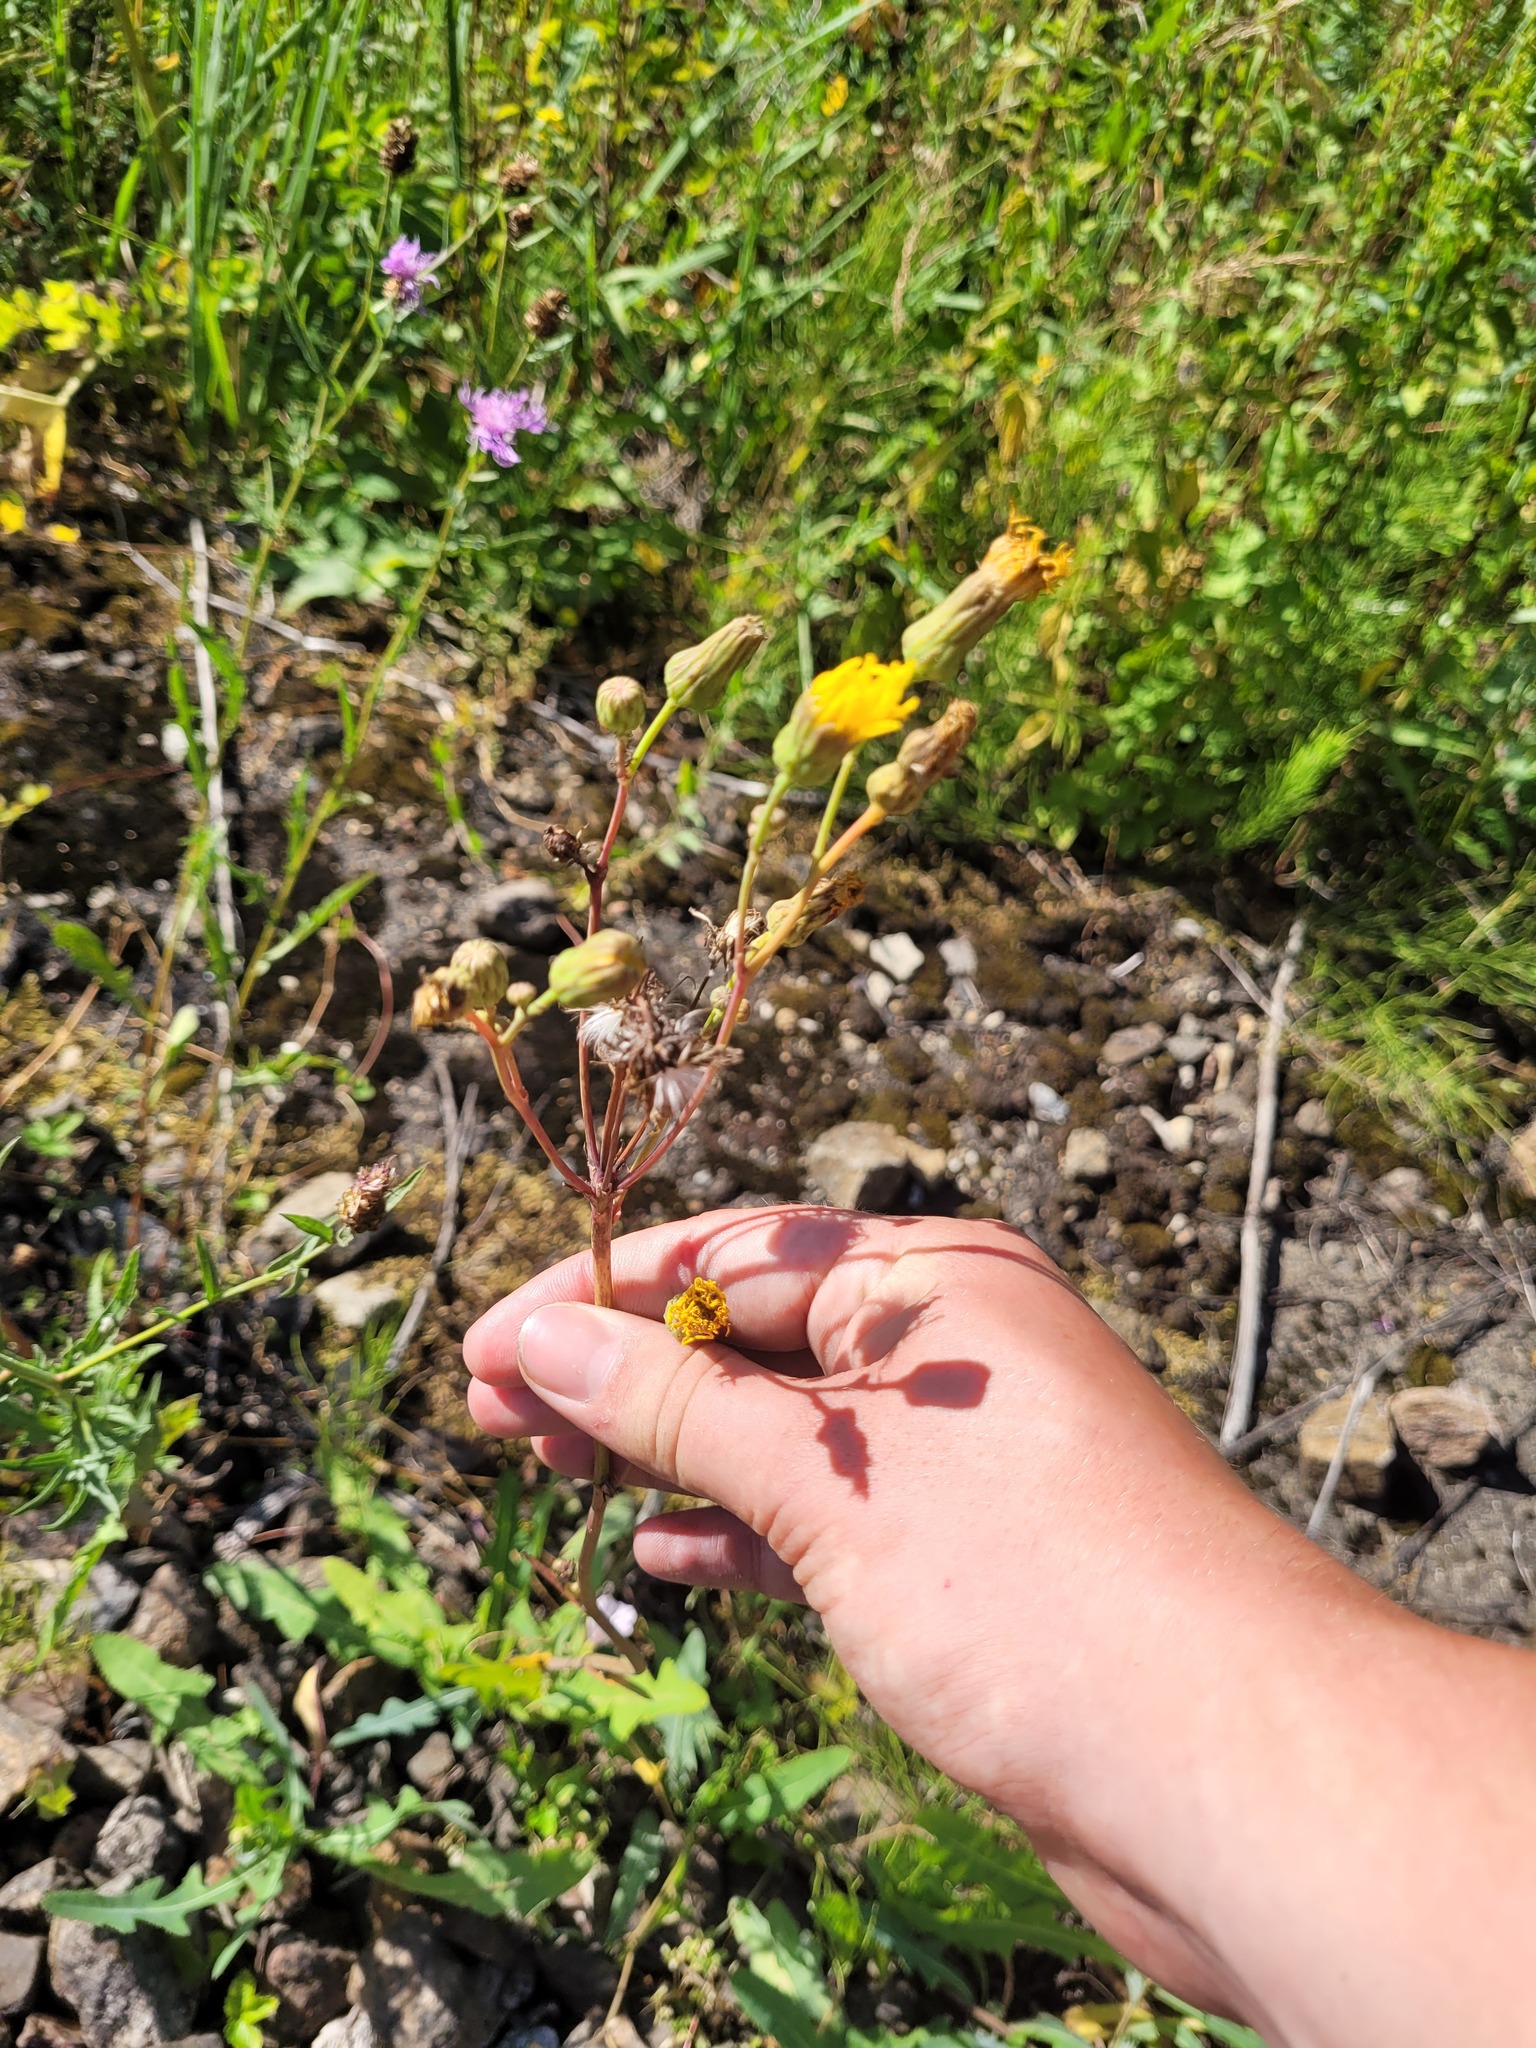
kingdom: Plantae
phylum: Tracheophyta
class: Magnoliopsida
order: Asterales
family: Asteraceae
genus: Sonchus
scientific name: Sonchus arvensis
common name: Perennial sow-thistle
